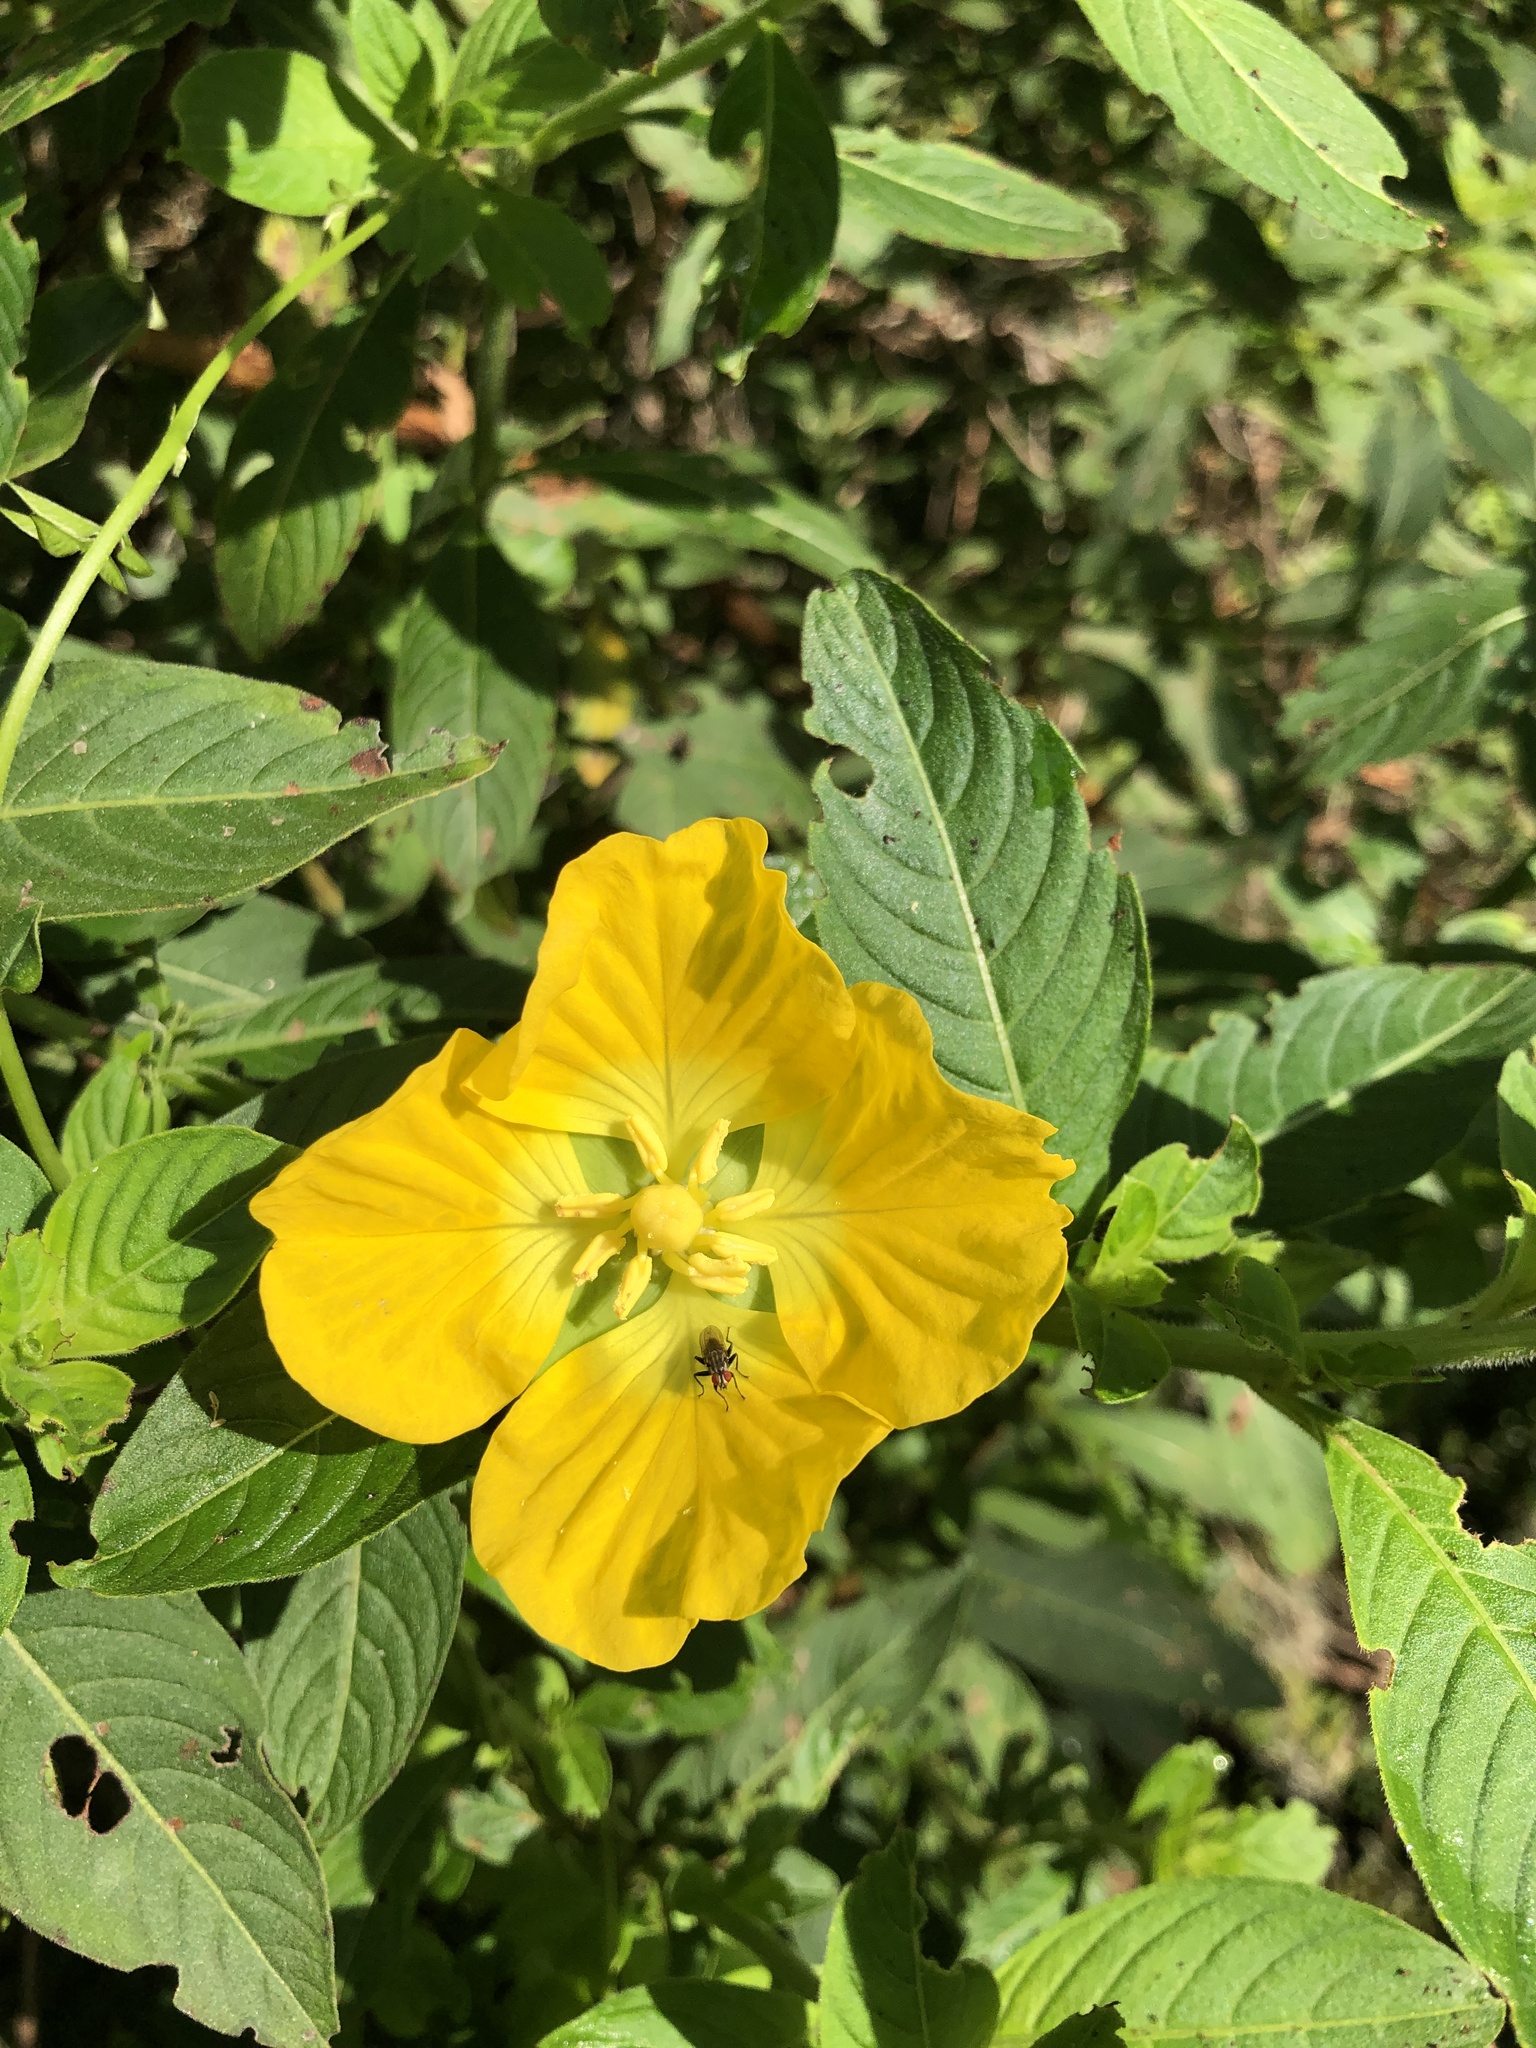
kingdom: Plantae
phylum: Tracheophyta
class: Magnoliopsida
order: Myrtales
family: Onagraceae
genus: Ludwigia
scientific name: Ludwigia peruviana
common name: Peruvian primrose-willow
